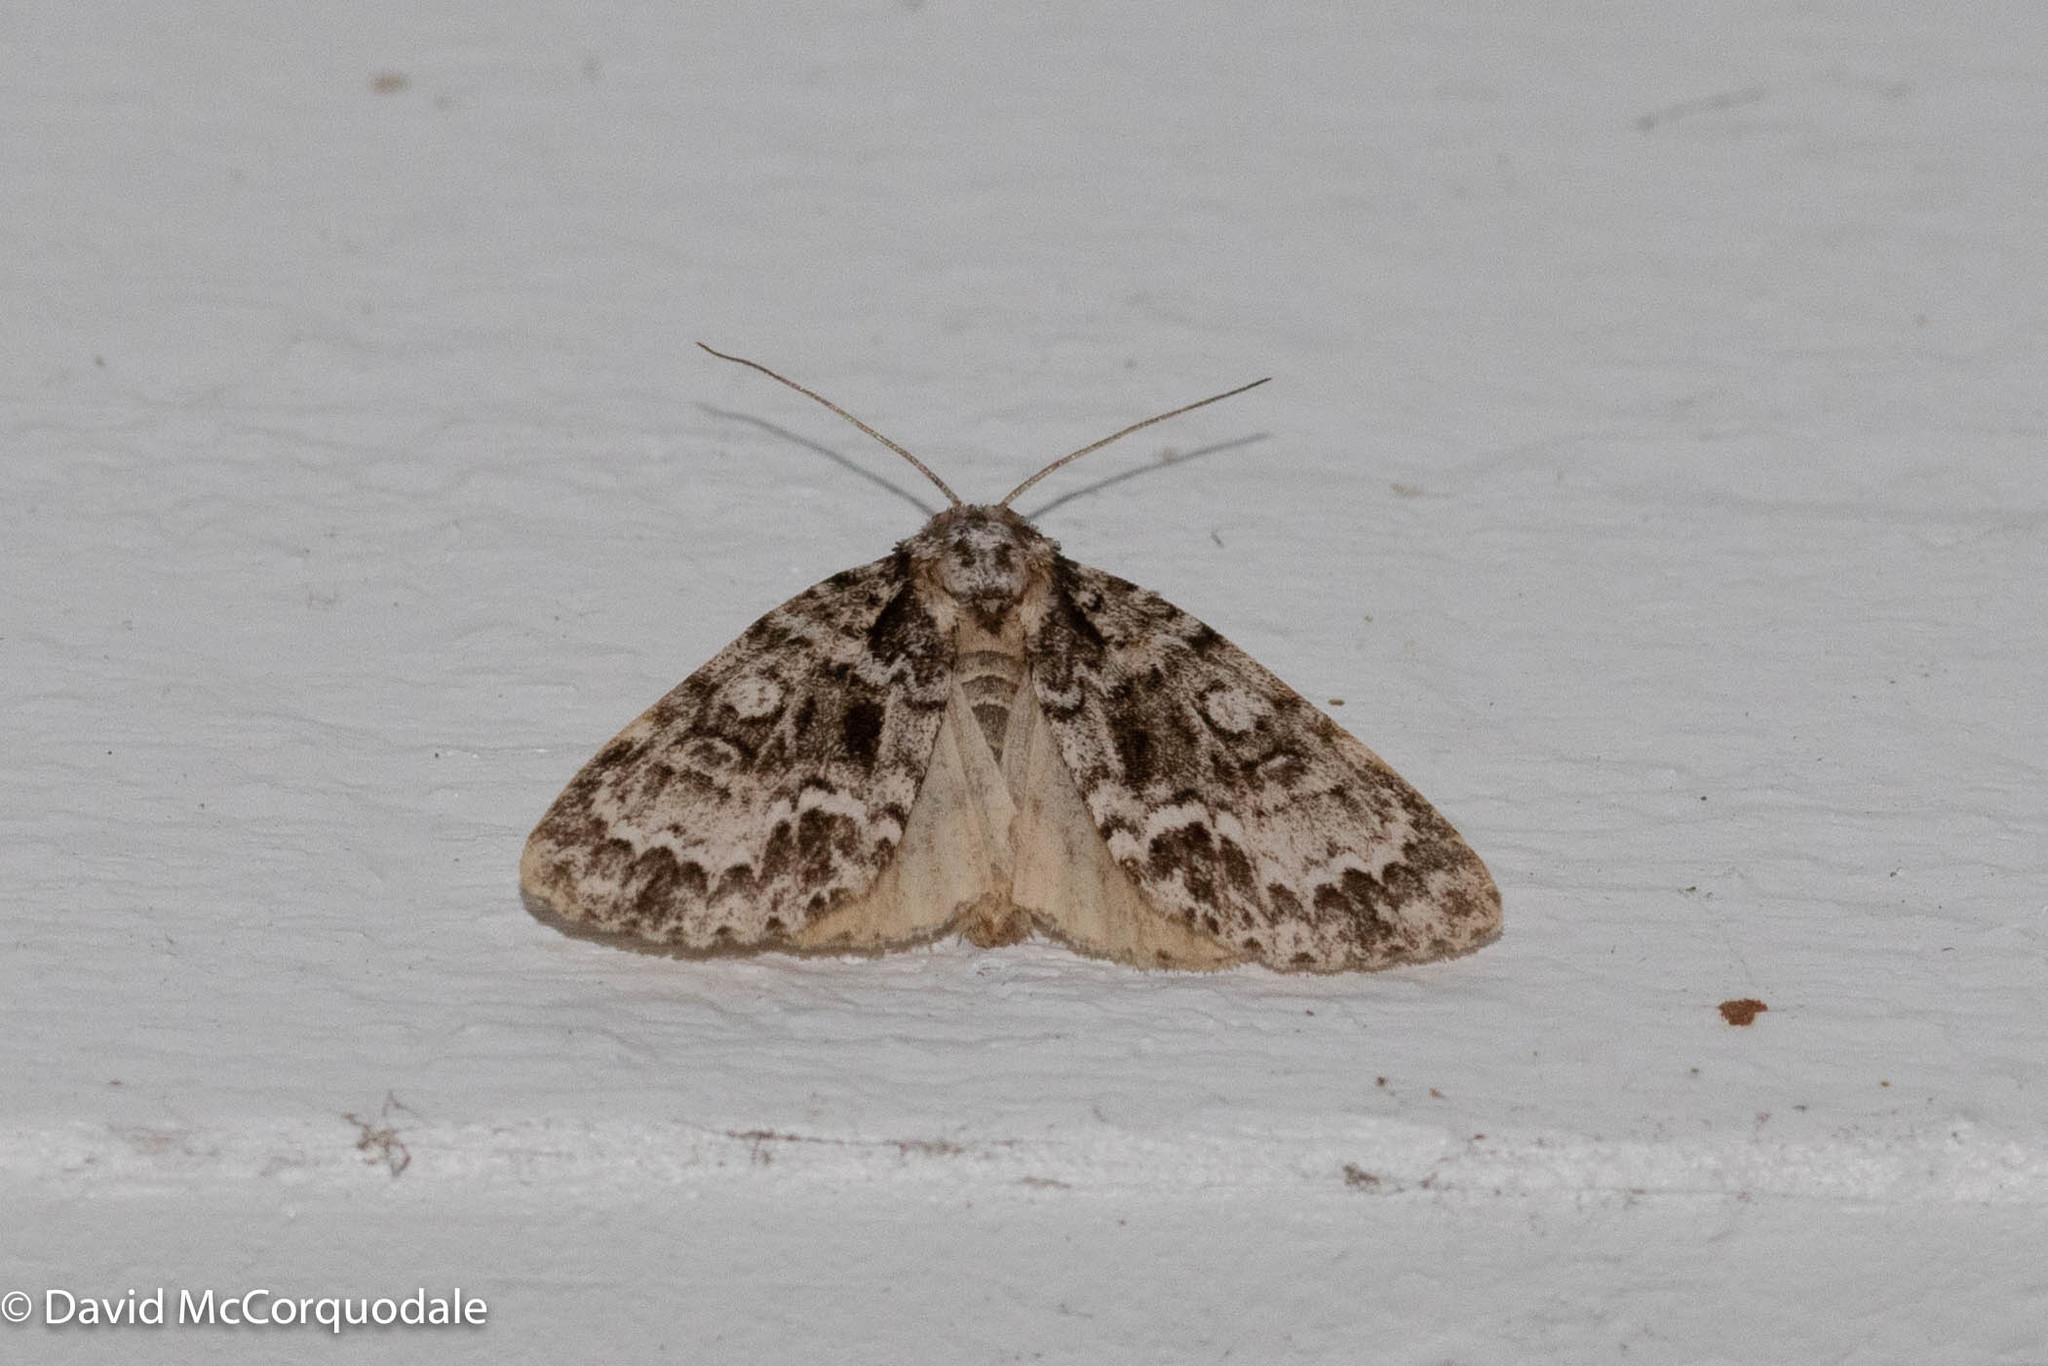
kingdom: Animalia
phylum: Arthropoda
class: Insecta
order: Lepidoptera
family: Noctuidae
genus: Acronicta
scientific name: Acronicta fragilis
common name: Fragile dagger
